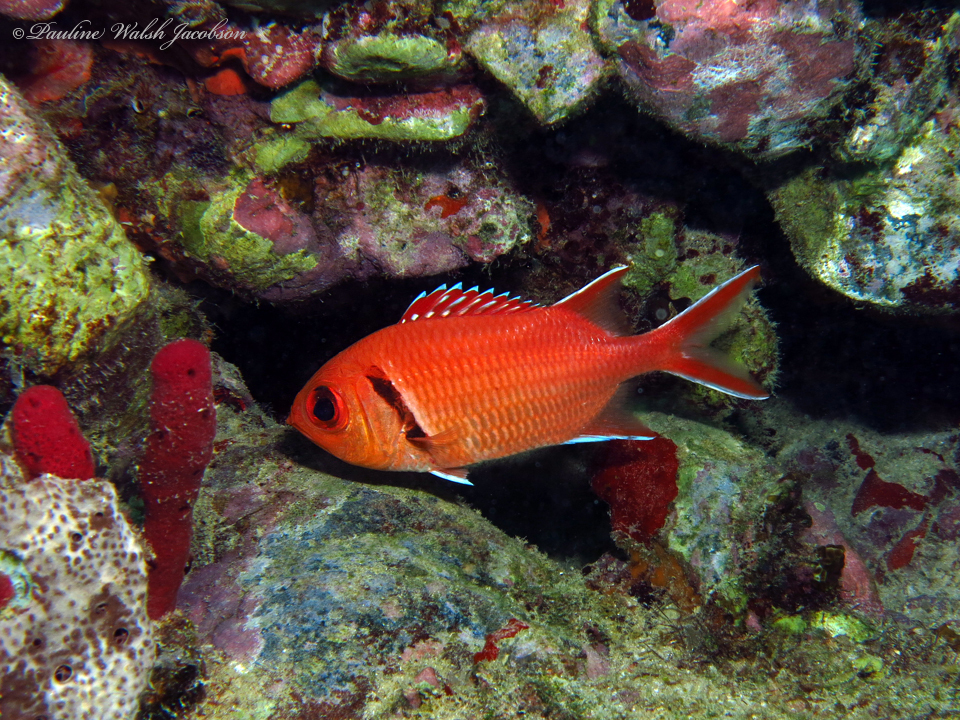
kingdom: Animalia
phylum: Chordata
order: Beryciformes
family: Holocentridae
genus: Myripristis
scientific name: Myripristis jacobus
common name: Blackbar soldierfish
